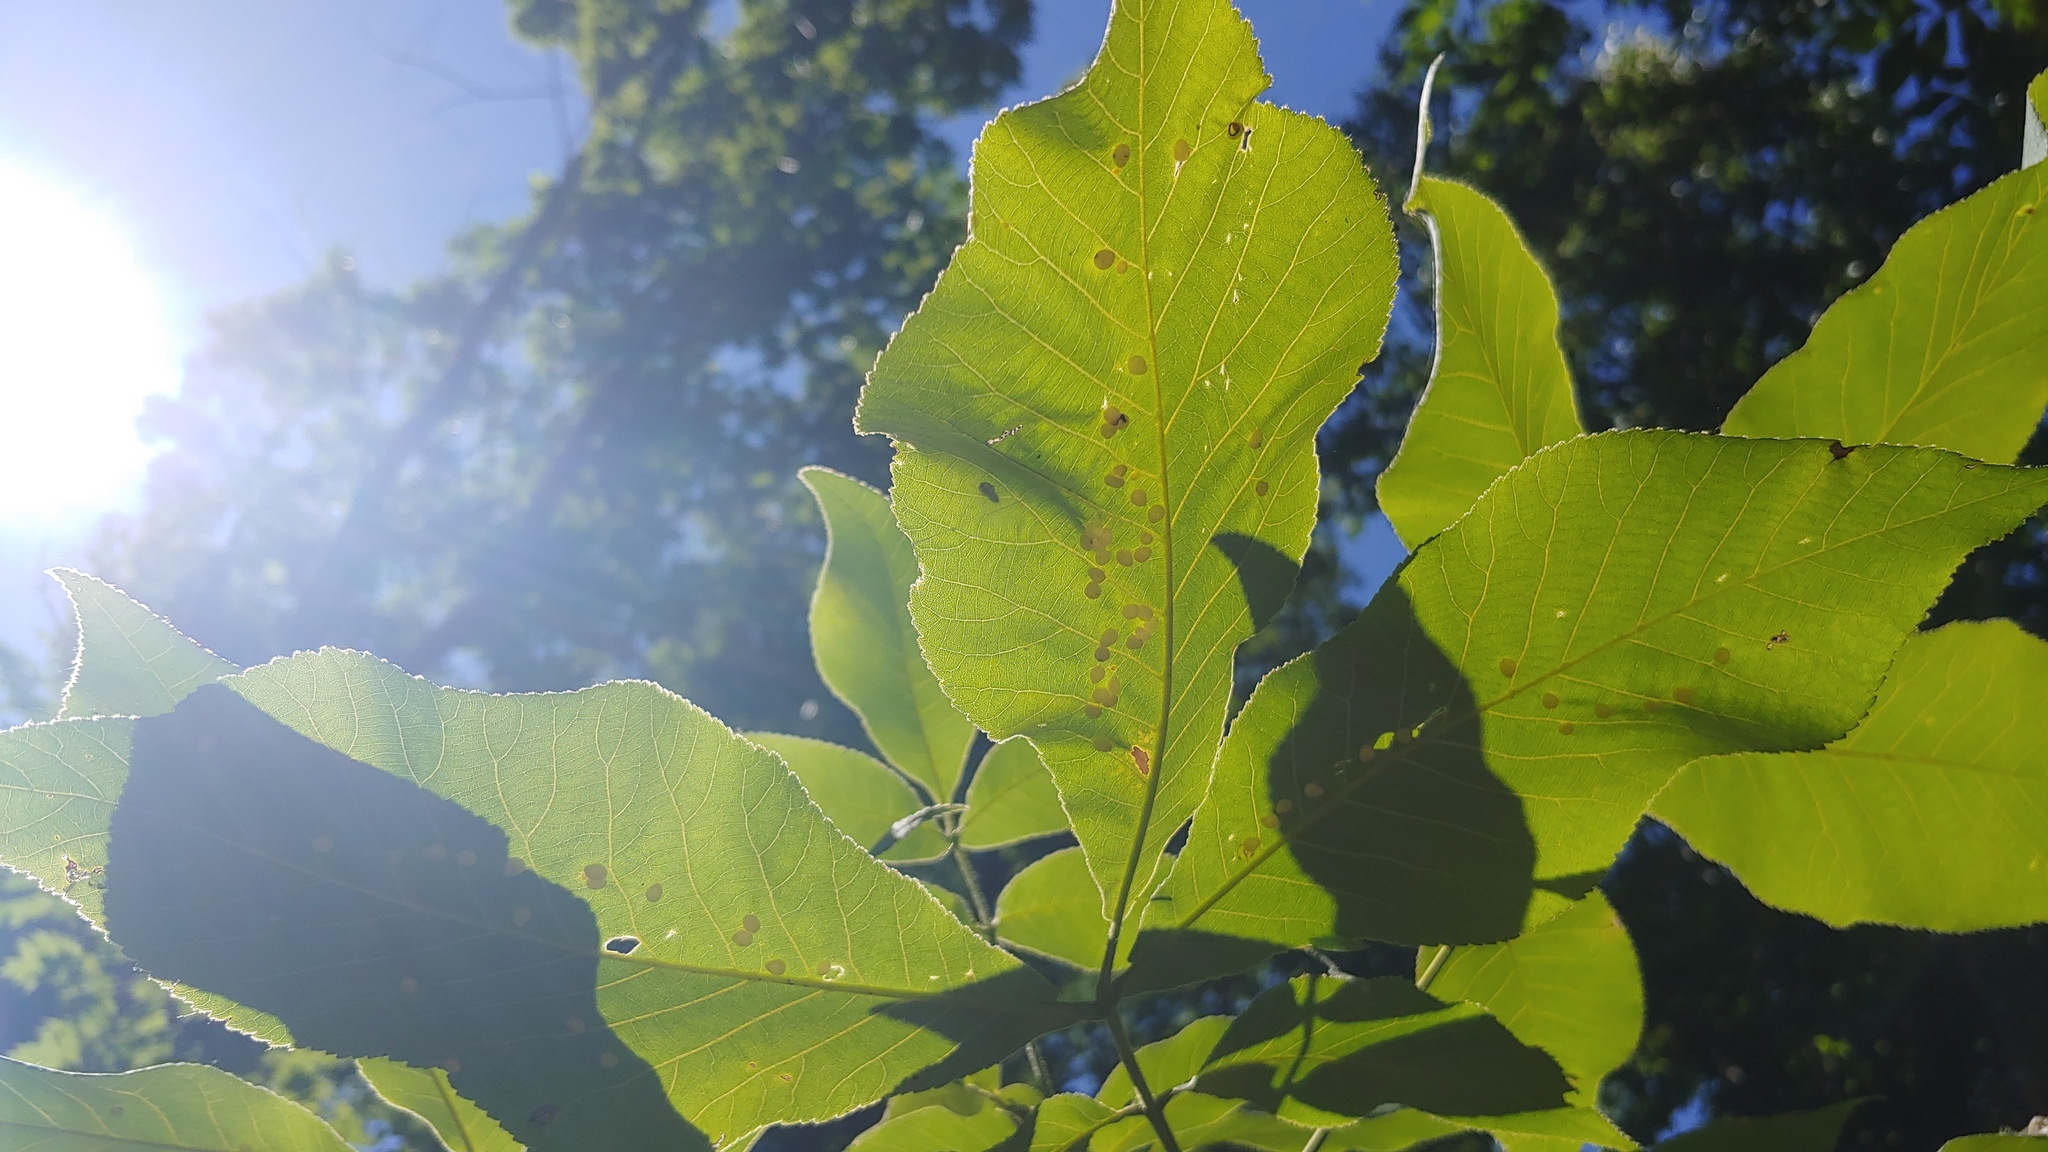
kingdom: Animalia
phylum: Arthropoda
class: Insecta
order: Diptera
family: Cecidomyiidae
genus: Caryomyia
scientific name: Caryomyia caryae
